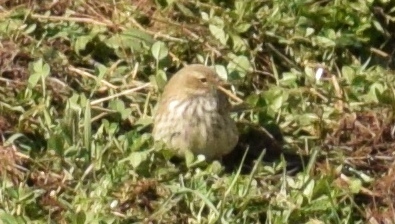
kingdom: Animalia
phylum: Chordata
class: Aves
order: Passeriformes
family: Motacillidae
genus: Anthus
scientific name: Anthus spinoletta
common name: Water pipit
